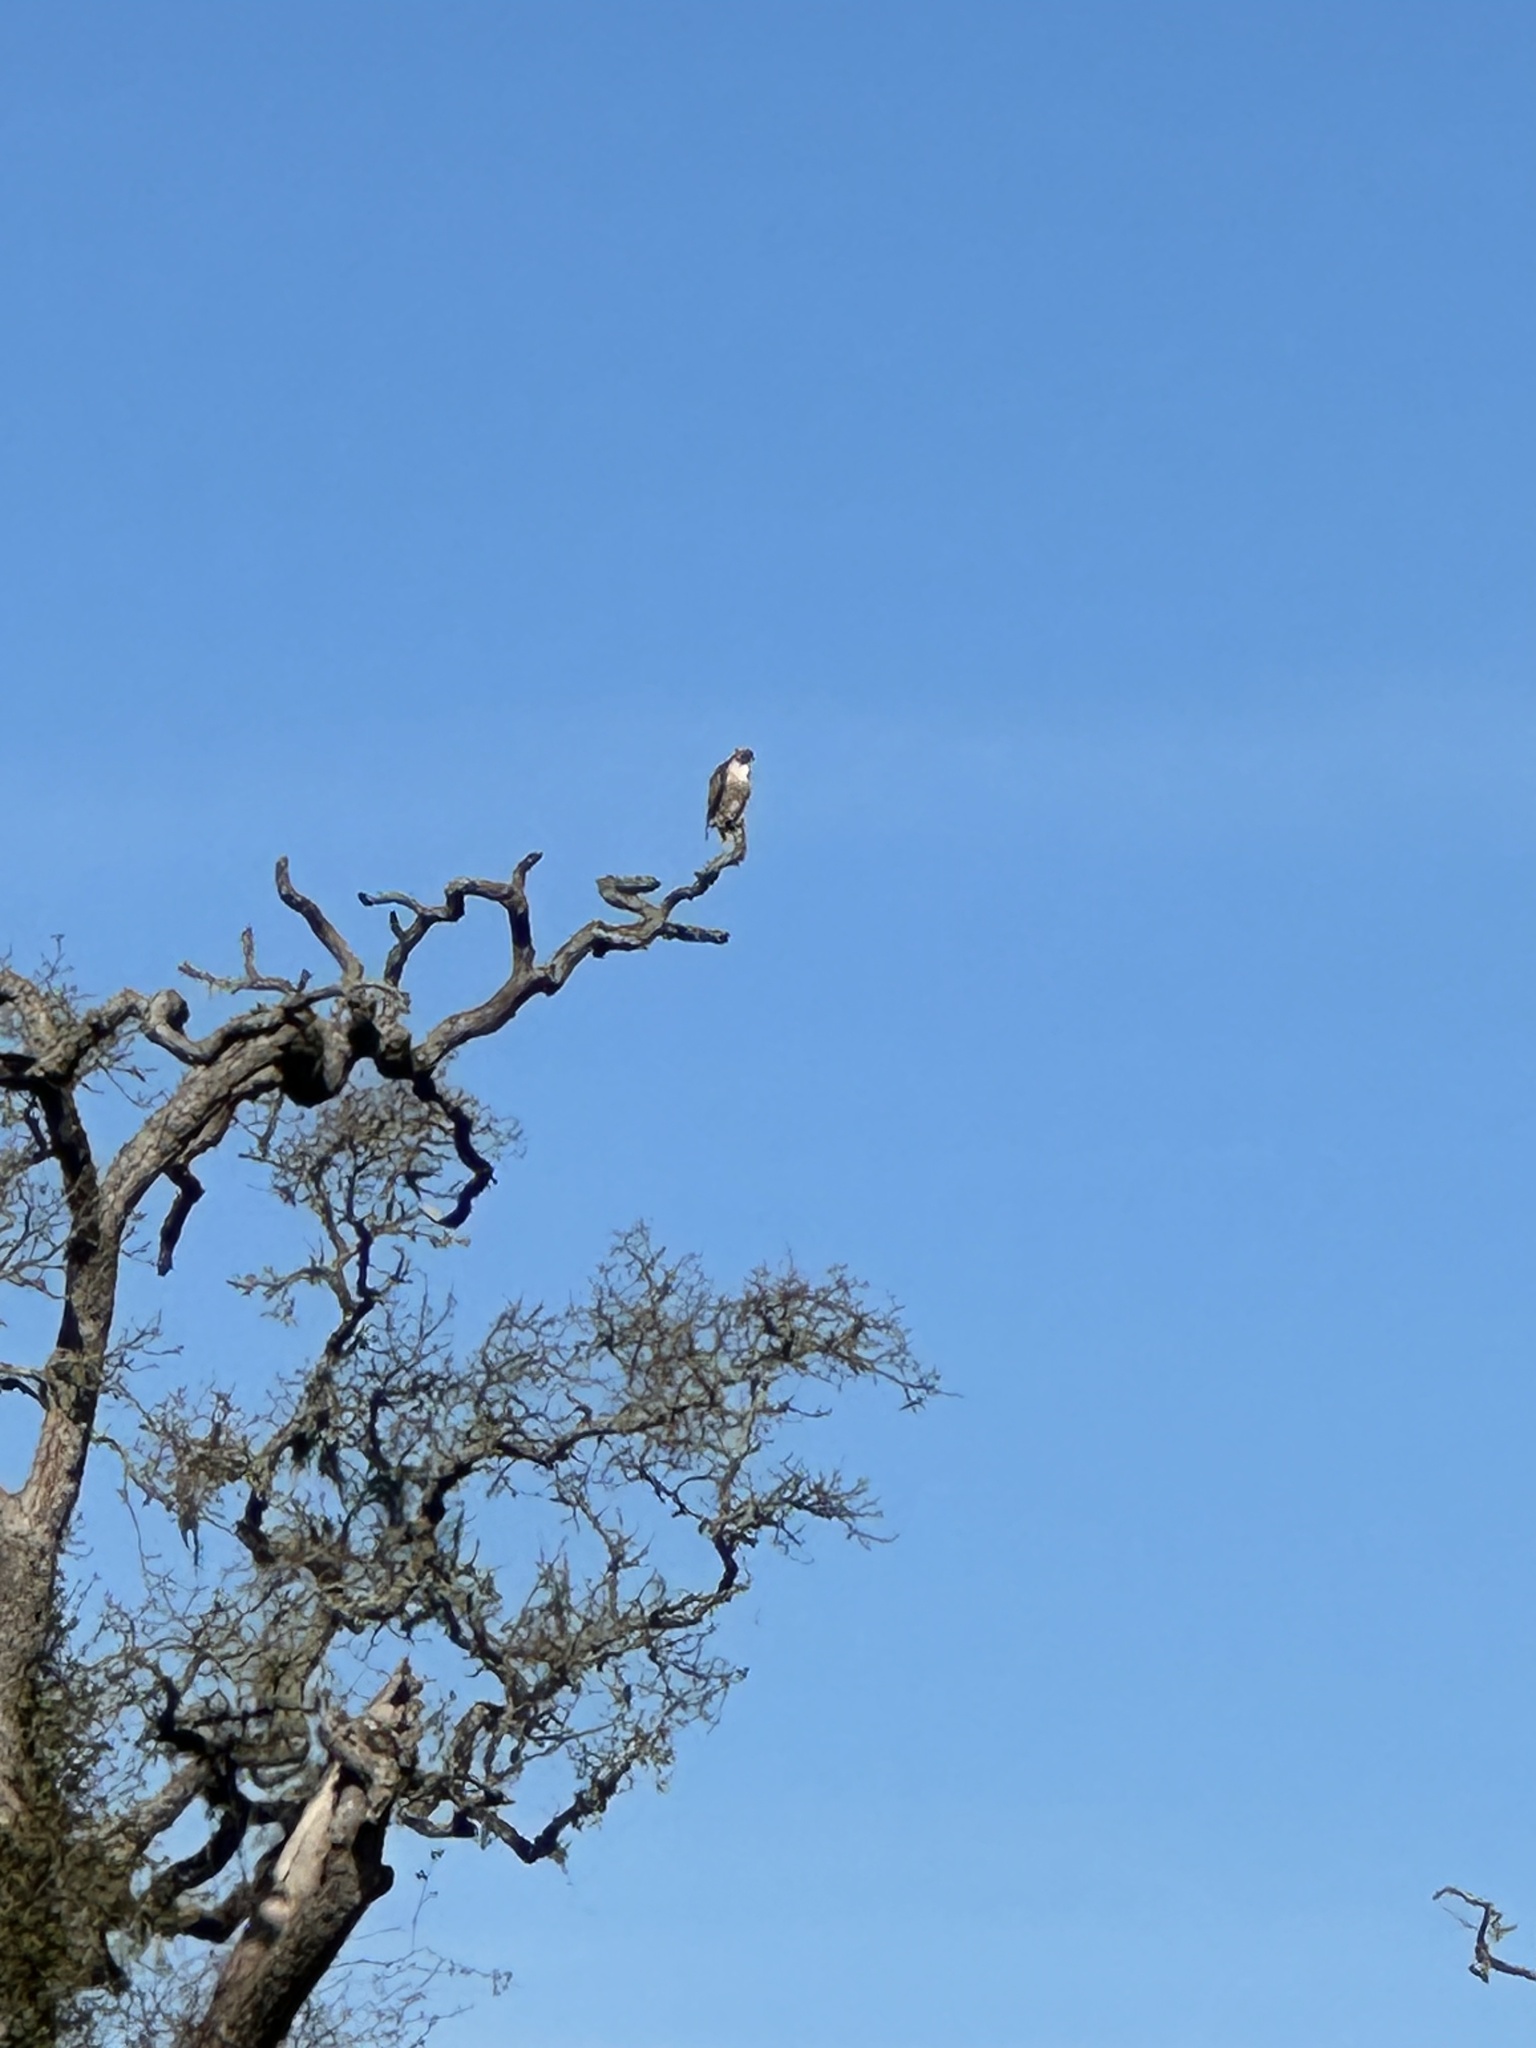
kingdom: Animalia
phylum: Chordata
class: Aves
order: Accipitriformes
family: Accipitridae
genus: Buteo
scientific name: Buteo jamaicensis
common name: Red-tailed hawk
